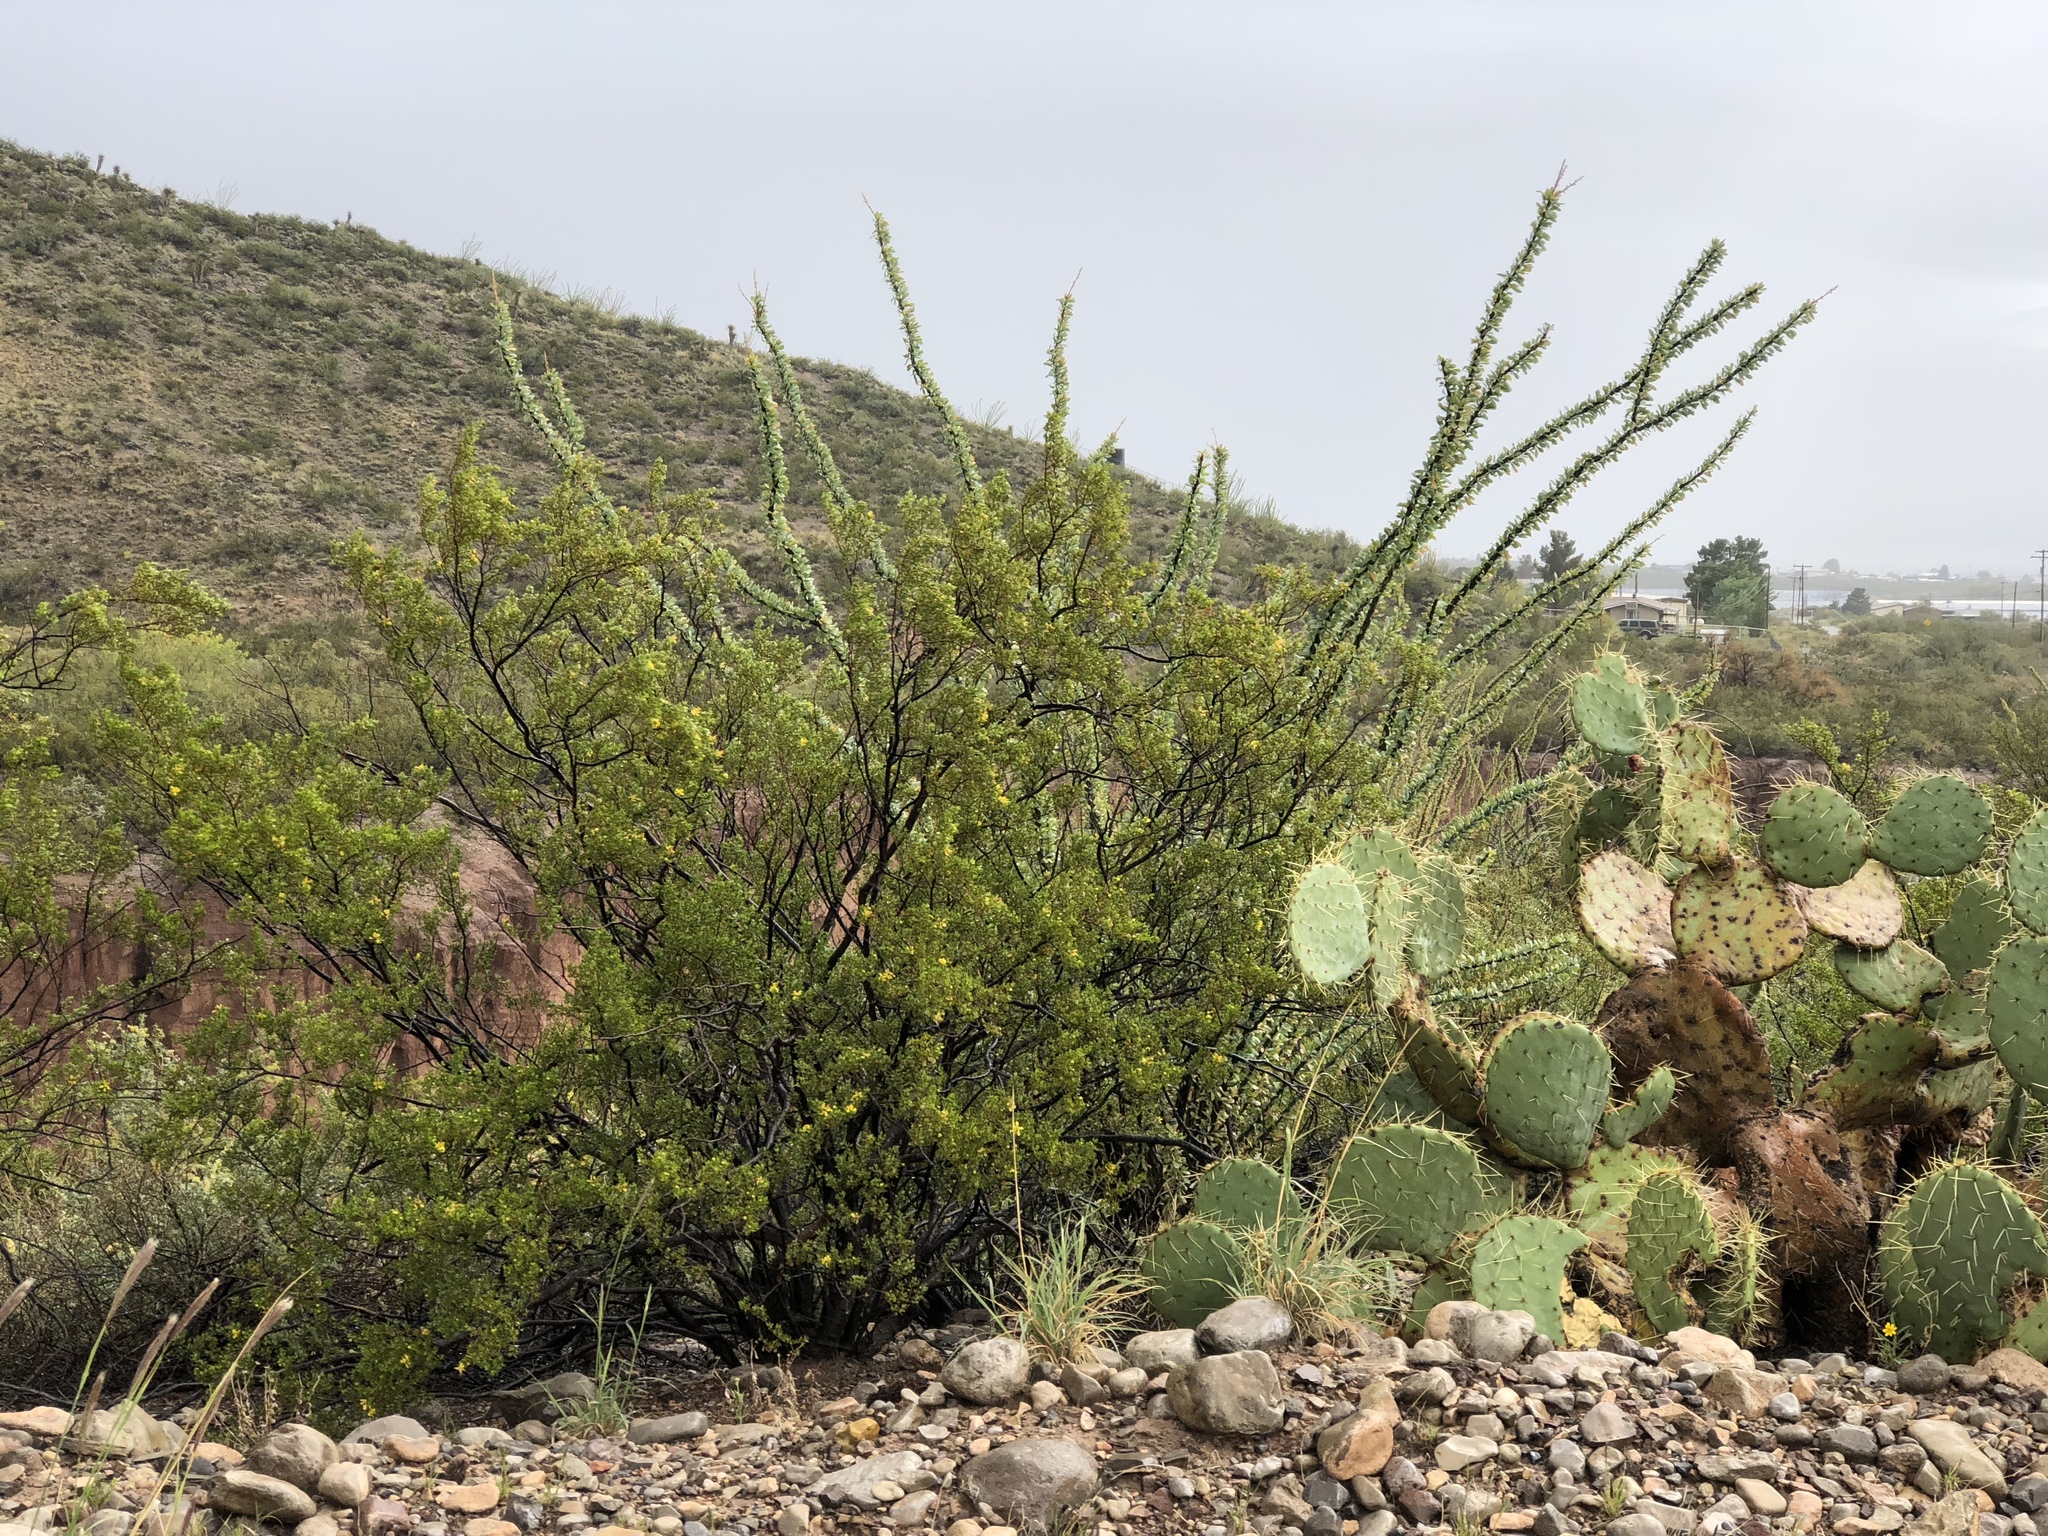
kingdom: Plantae
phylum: Tracheophyta
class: Magnoliopsida
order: Zygophyllales
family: Zygophyllaceae
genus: Larrea
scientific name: Larrea tridentata
